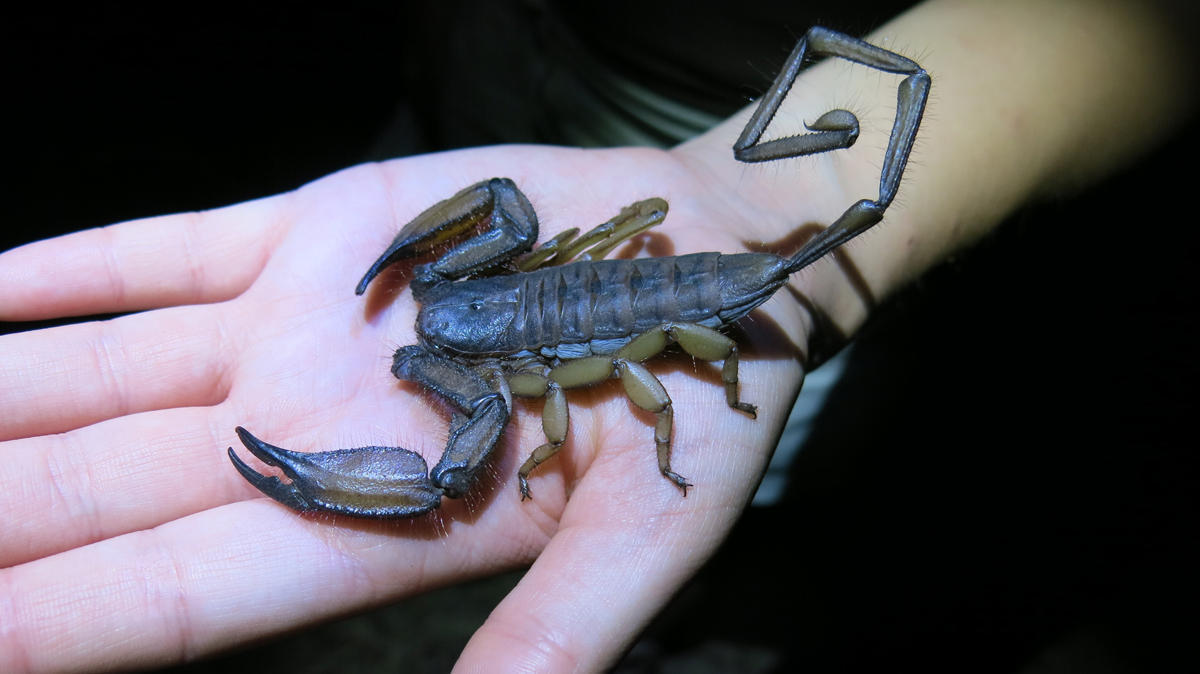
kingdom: Animalia
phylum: Arthropoda
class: Arachnida
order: Scorpiones
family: Hormuridae
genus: Hadogenes
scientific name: Hadogenes troglodytes
